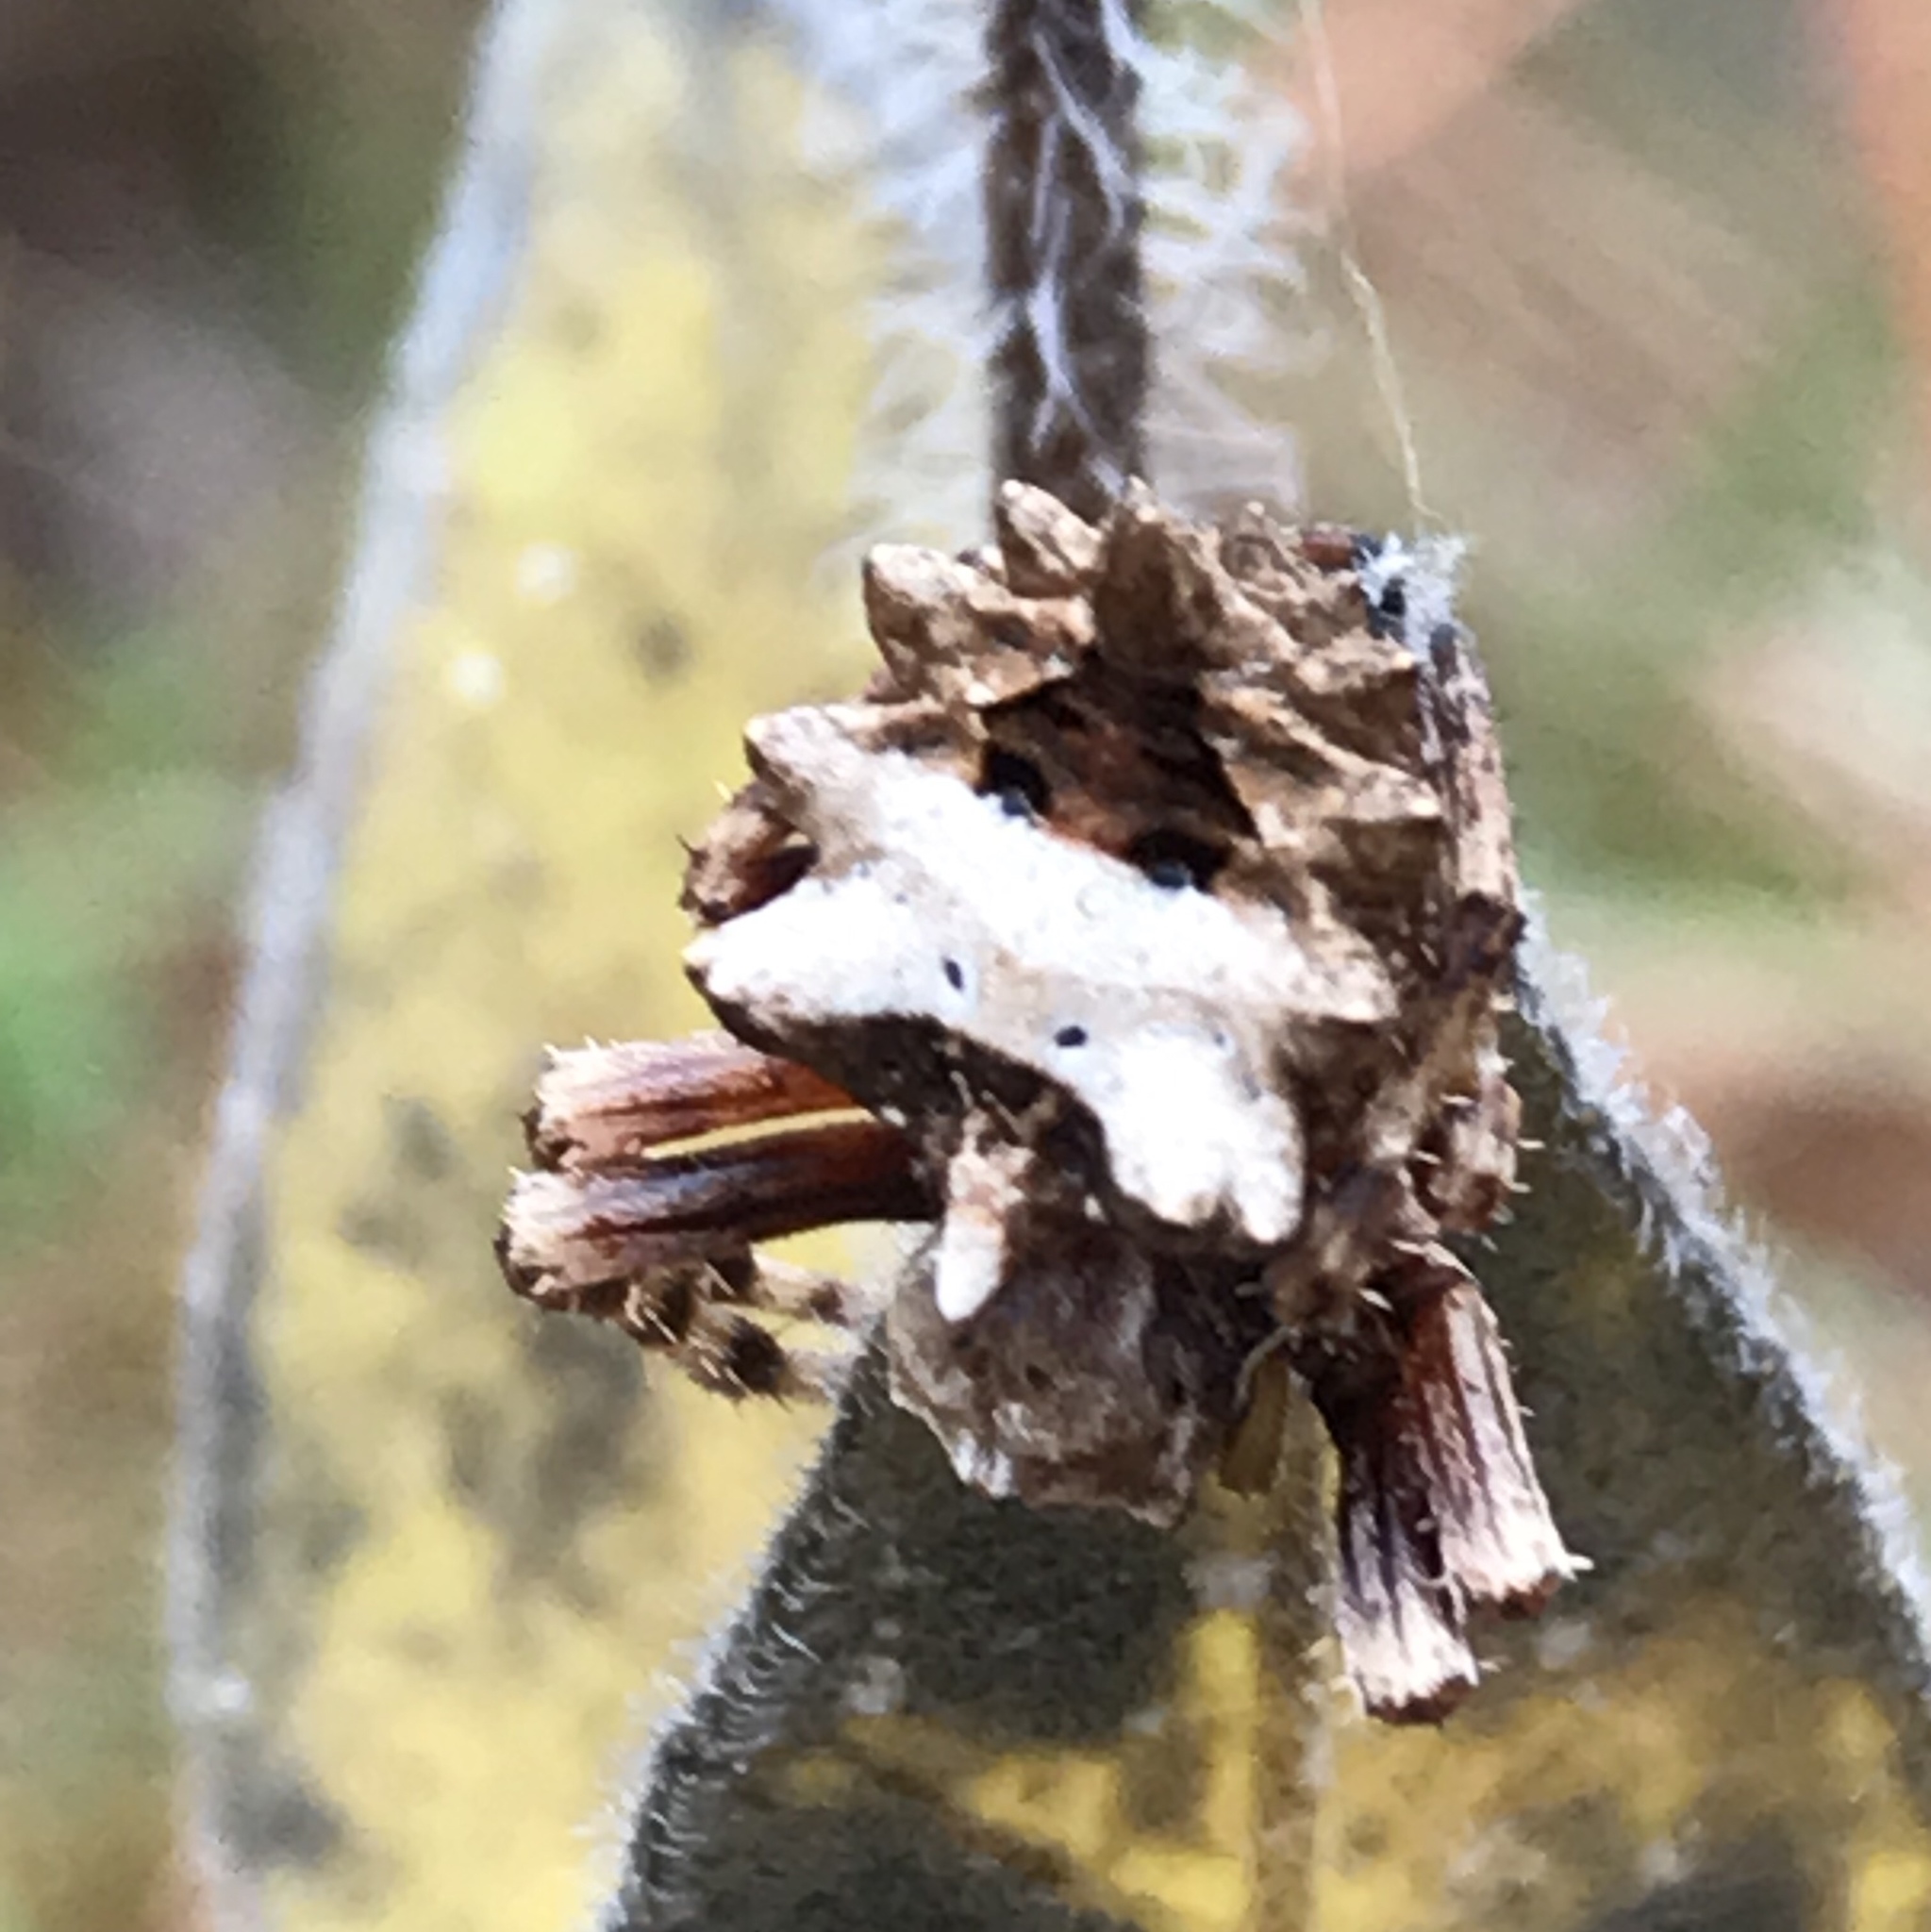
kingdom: Animalia
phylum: Arthropoda
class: Arachnida
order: Araneae
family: Araneidae
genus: Acanthepeira
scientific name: Acanthepeira stellata
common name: Starbellied orbweaver
